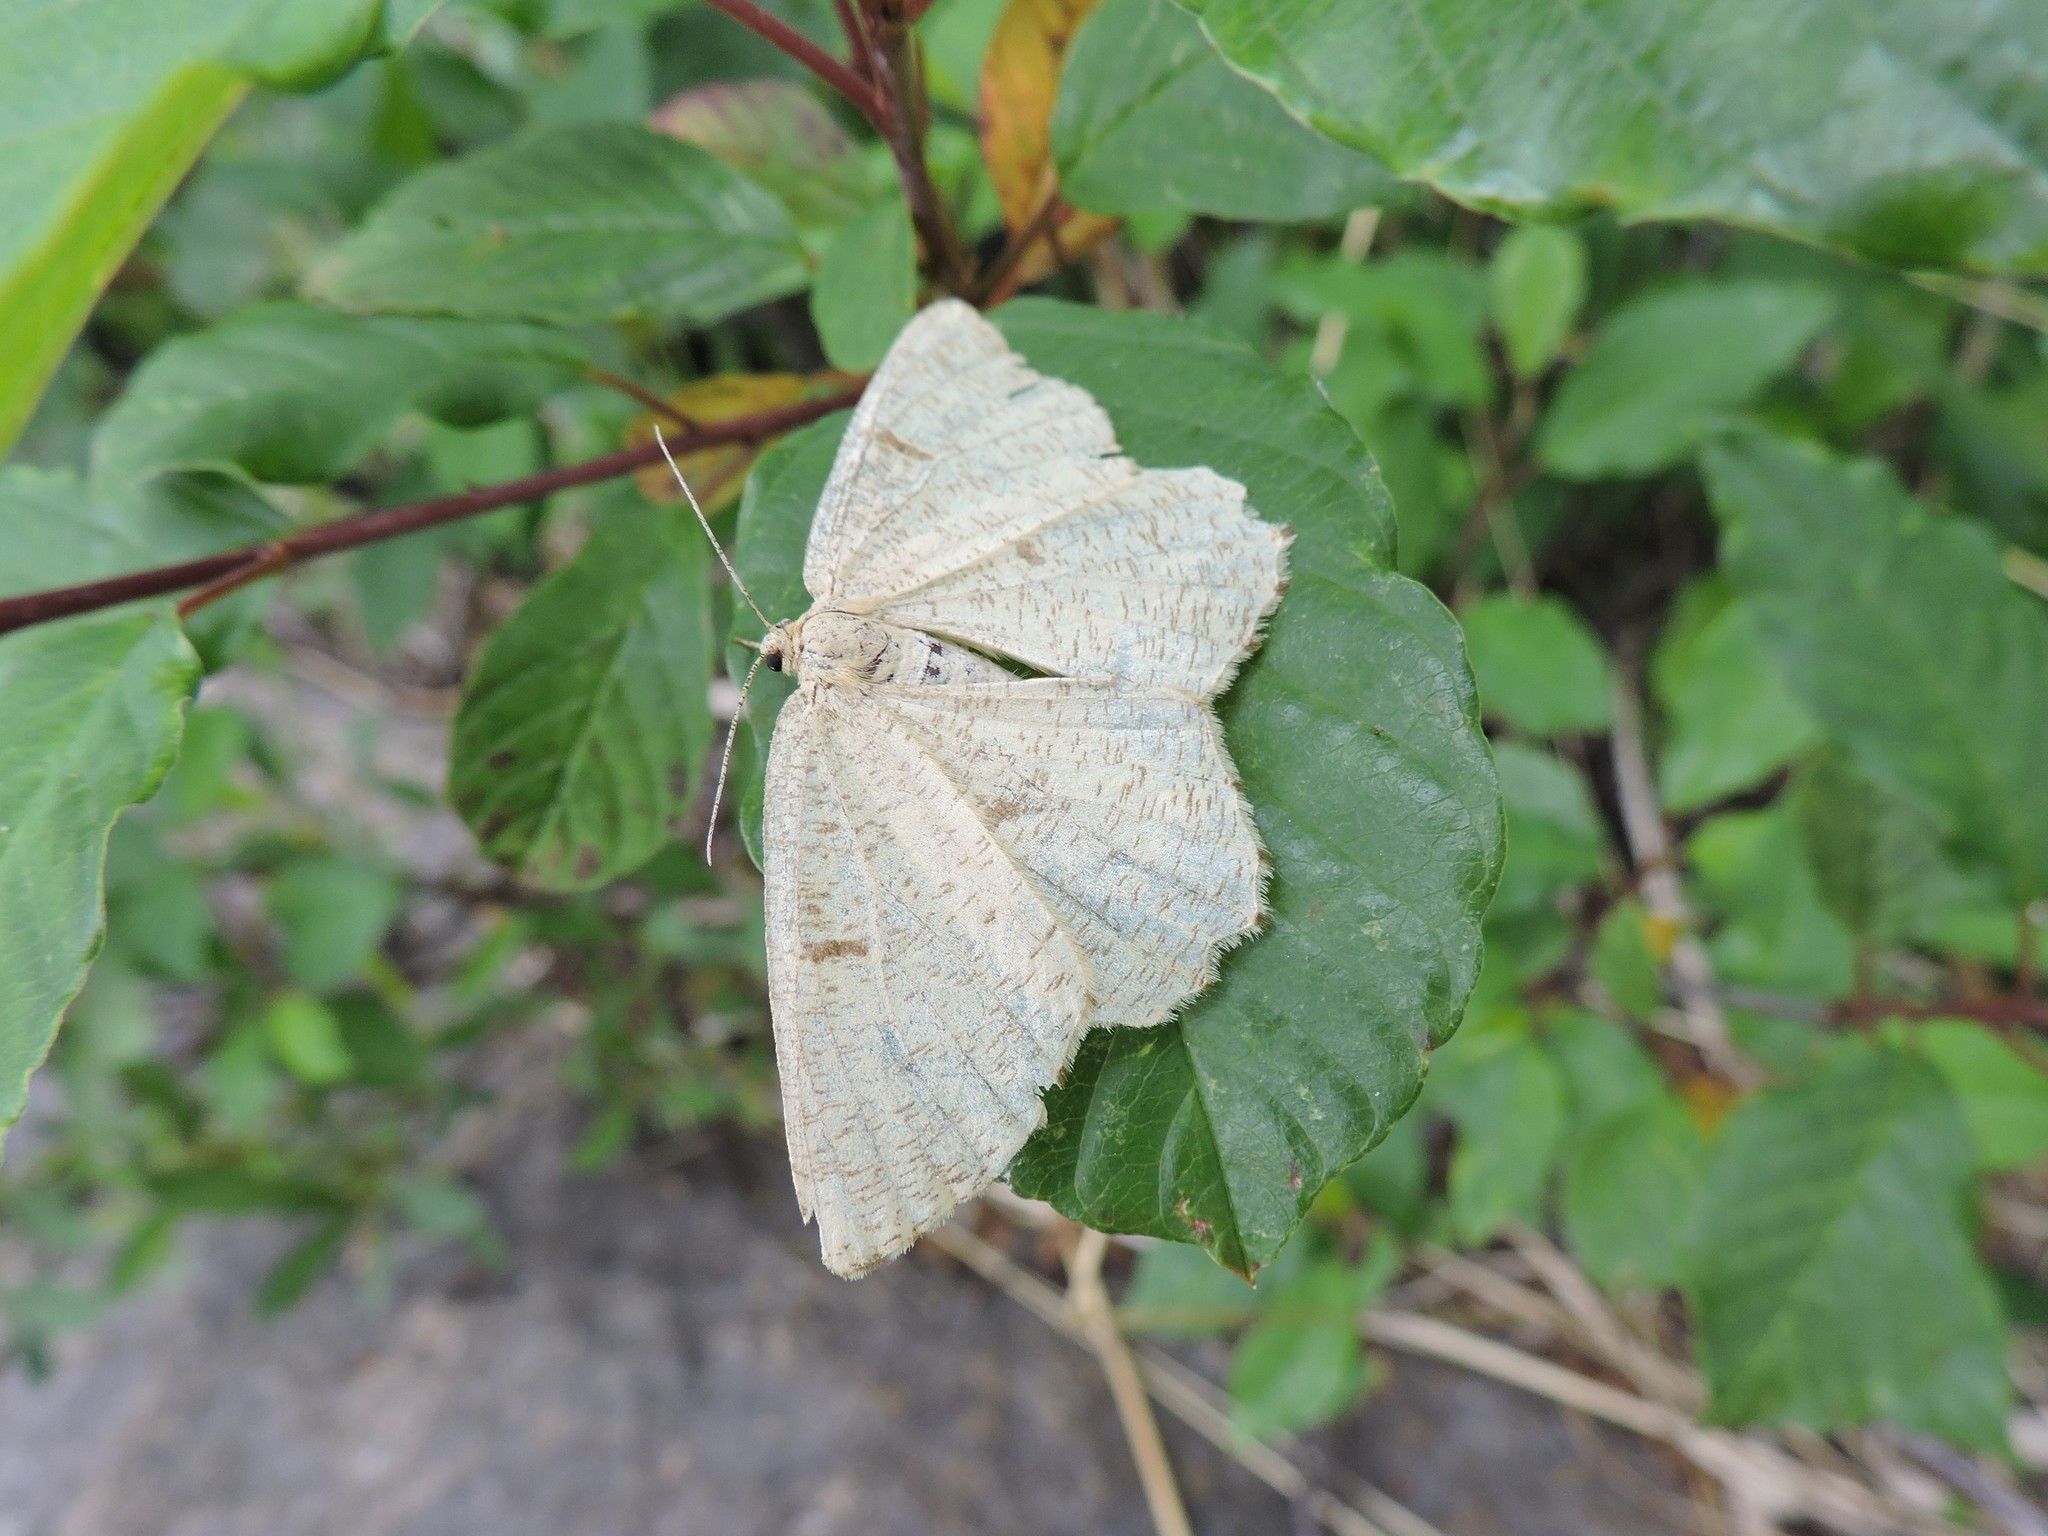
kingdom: Animalia
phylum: Arthropoda
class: Insecta
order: Lepidoptera
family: Geometridae
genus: Angerona
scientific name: Angerona prunaria
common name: Orange moth
